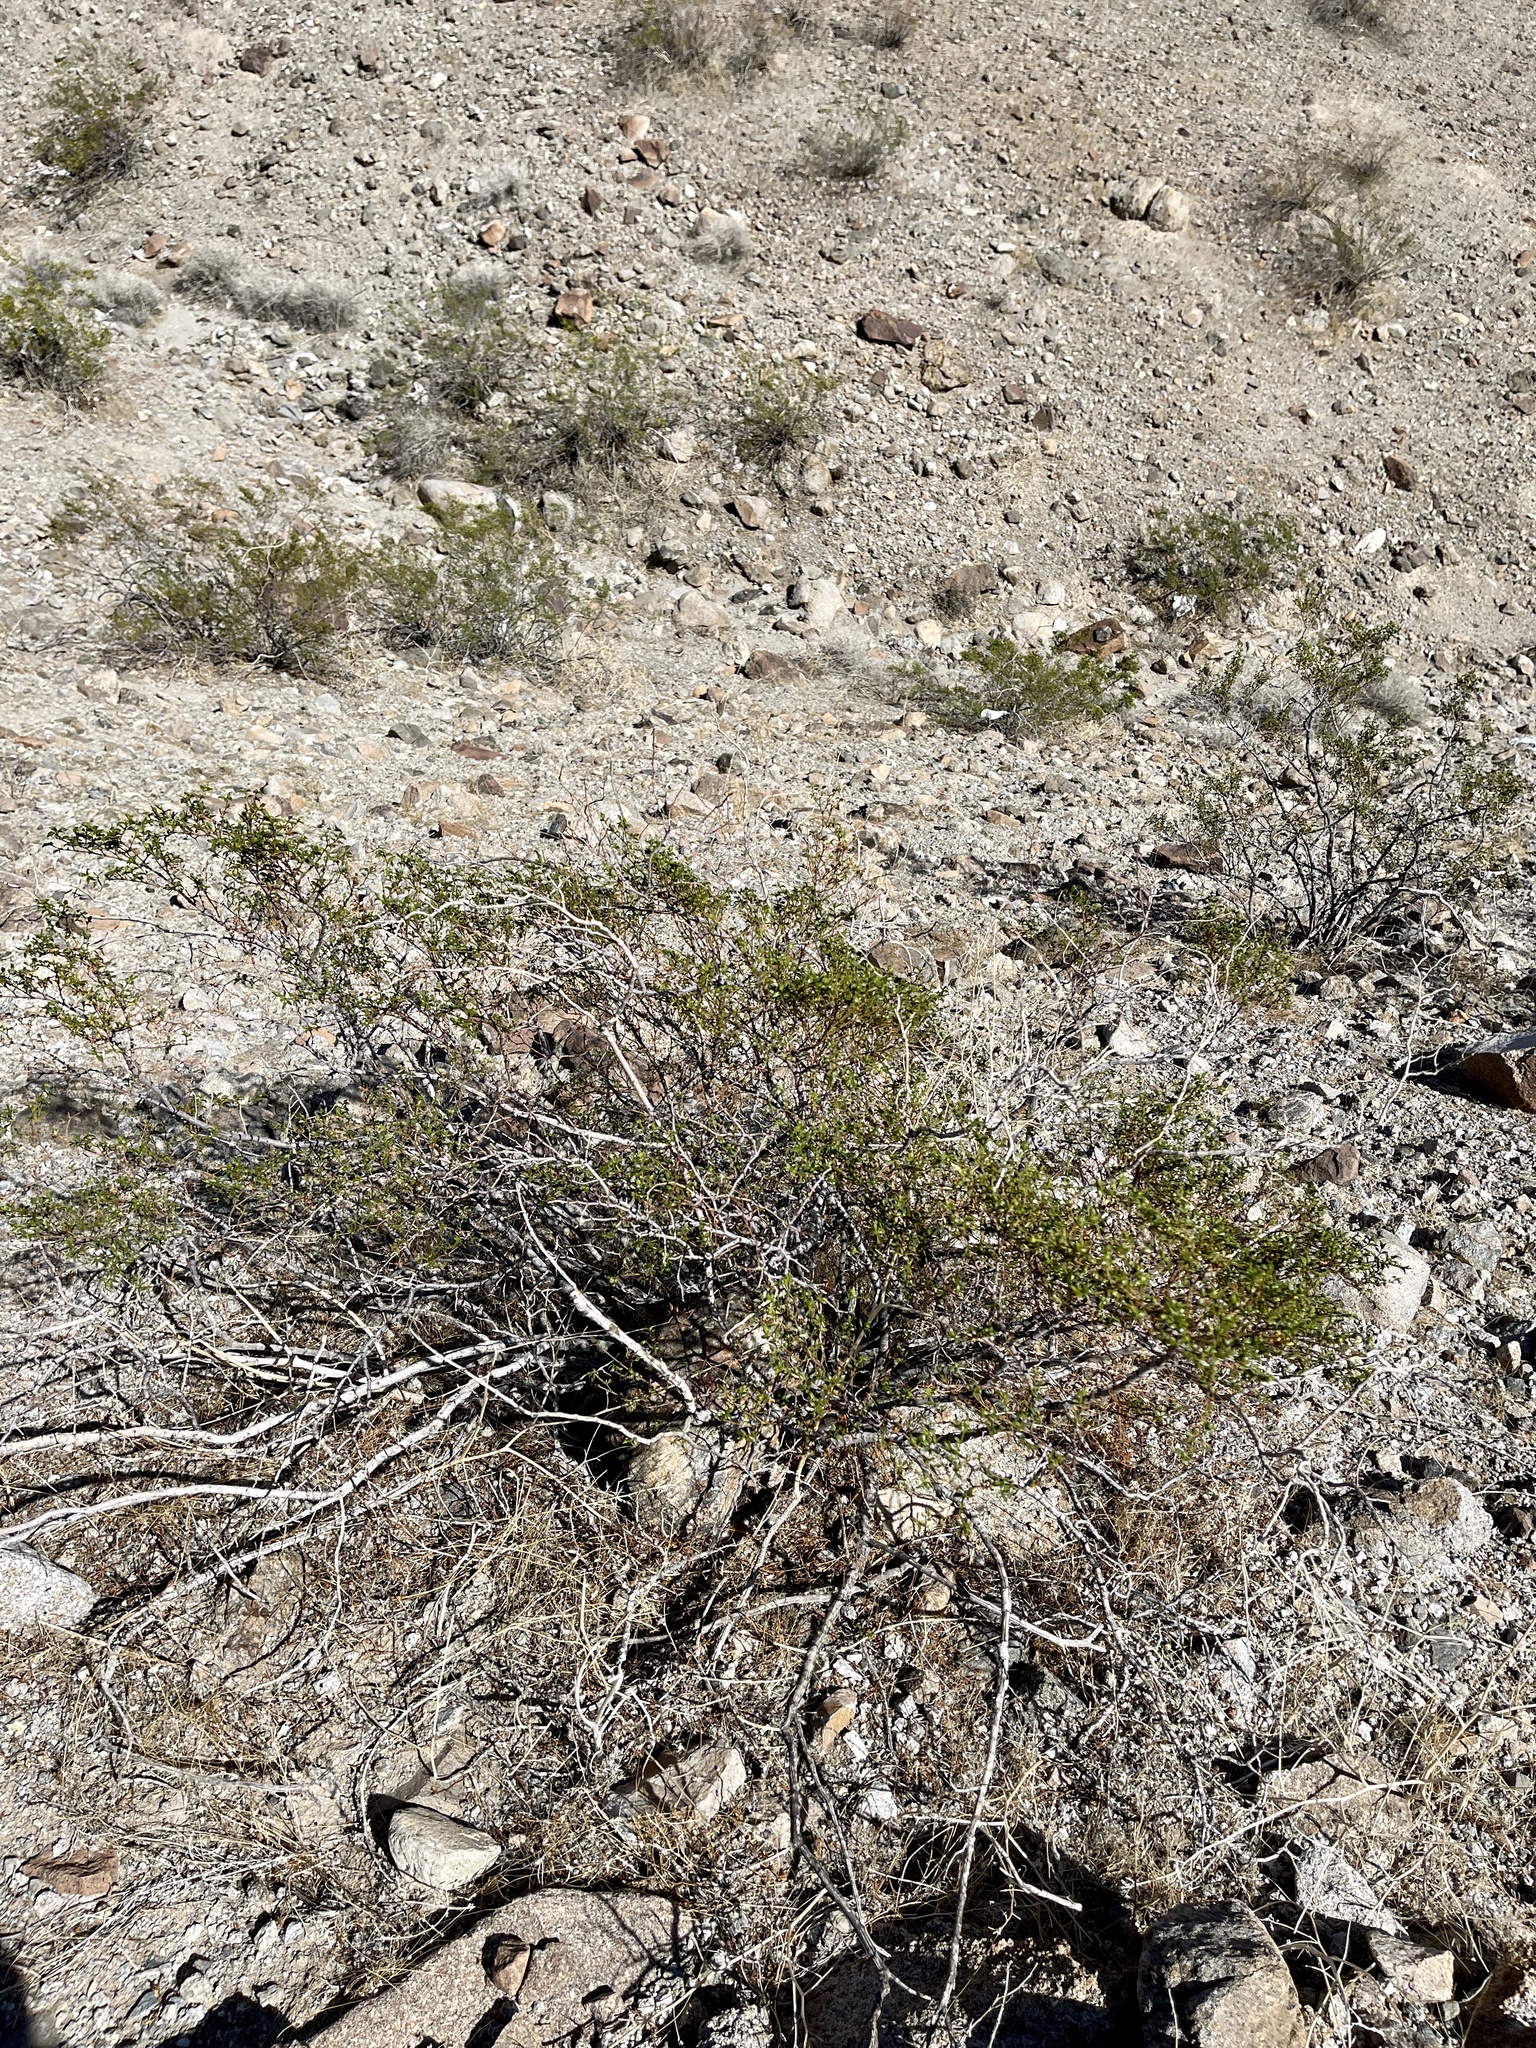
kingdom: Plantae
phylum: Tracheophyta
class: Magnoliopsida
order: Zygophyllales
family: Zygophyllaceae
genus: Larrea
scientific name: Larrea tridentata
